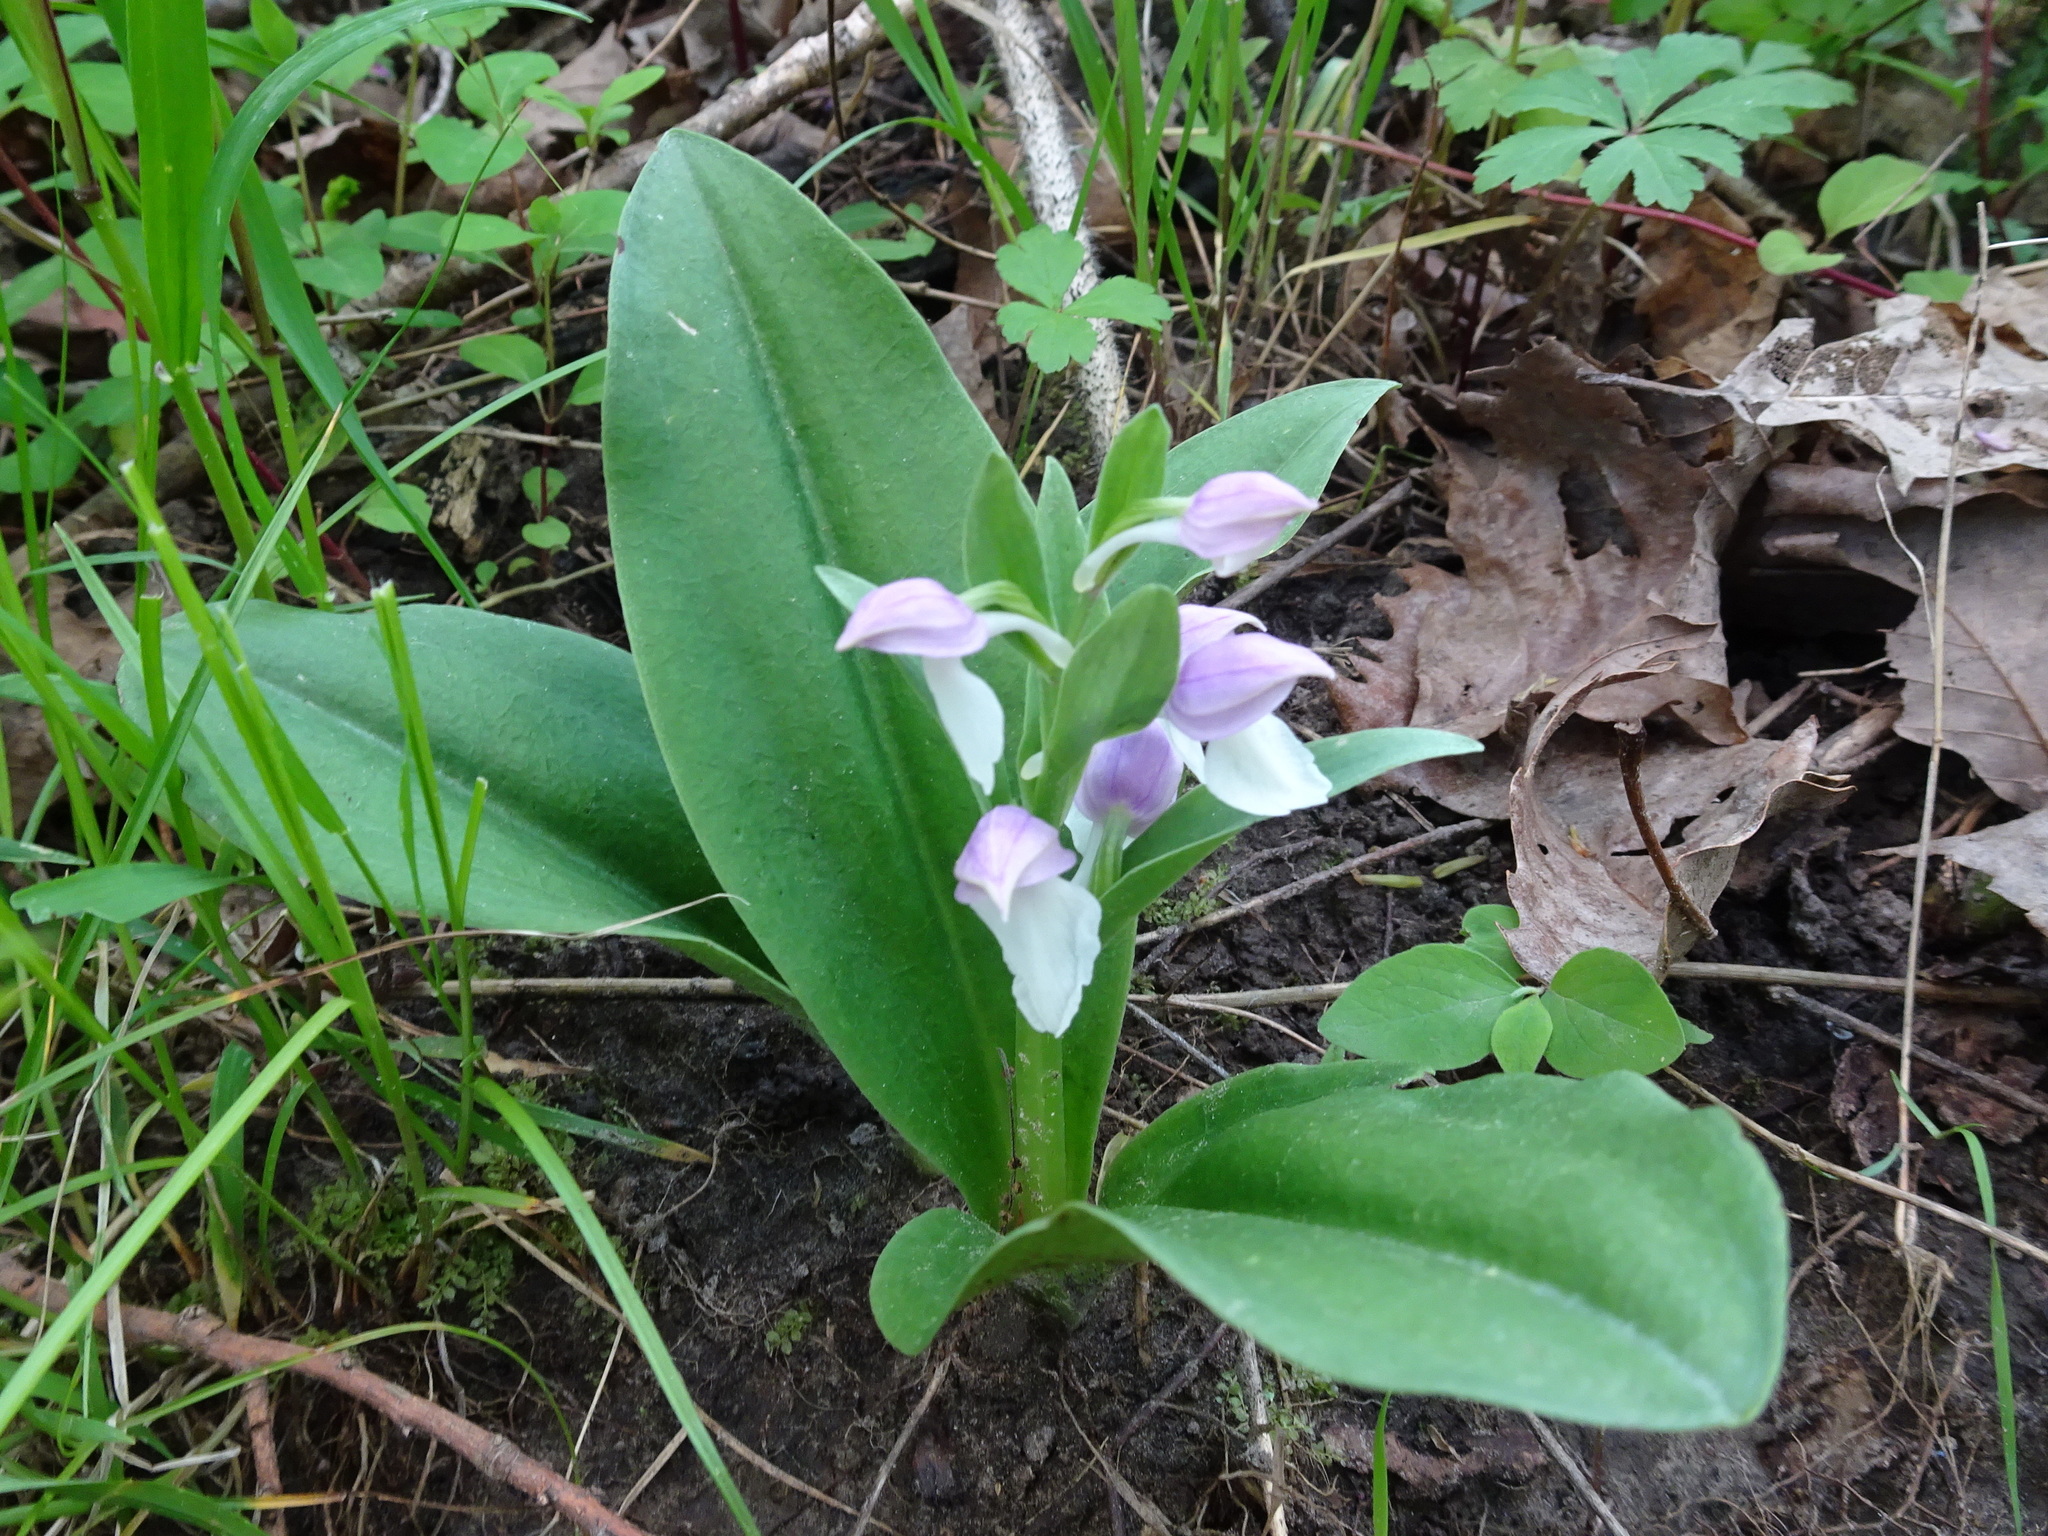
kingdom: Plantae
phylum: Tracheophyta
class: Liliopsida
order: Asparagales
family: Orchidaceae
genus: Galearis
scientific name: Galearis spectabilis
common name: Purple-hooded orchis
